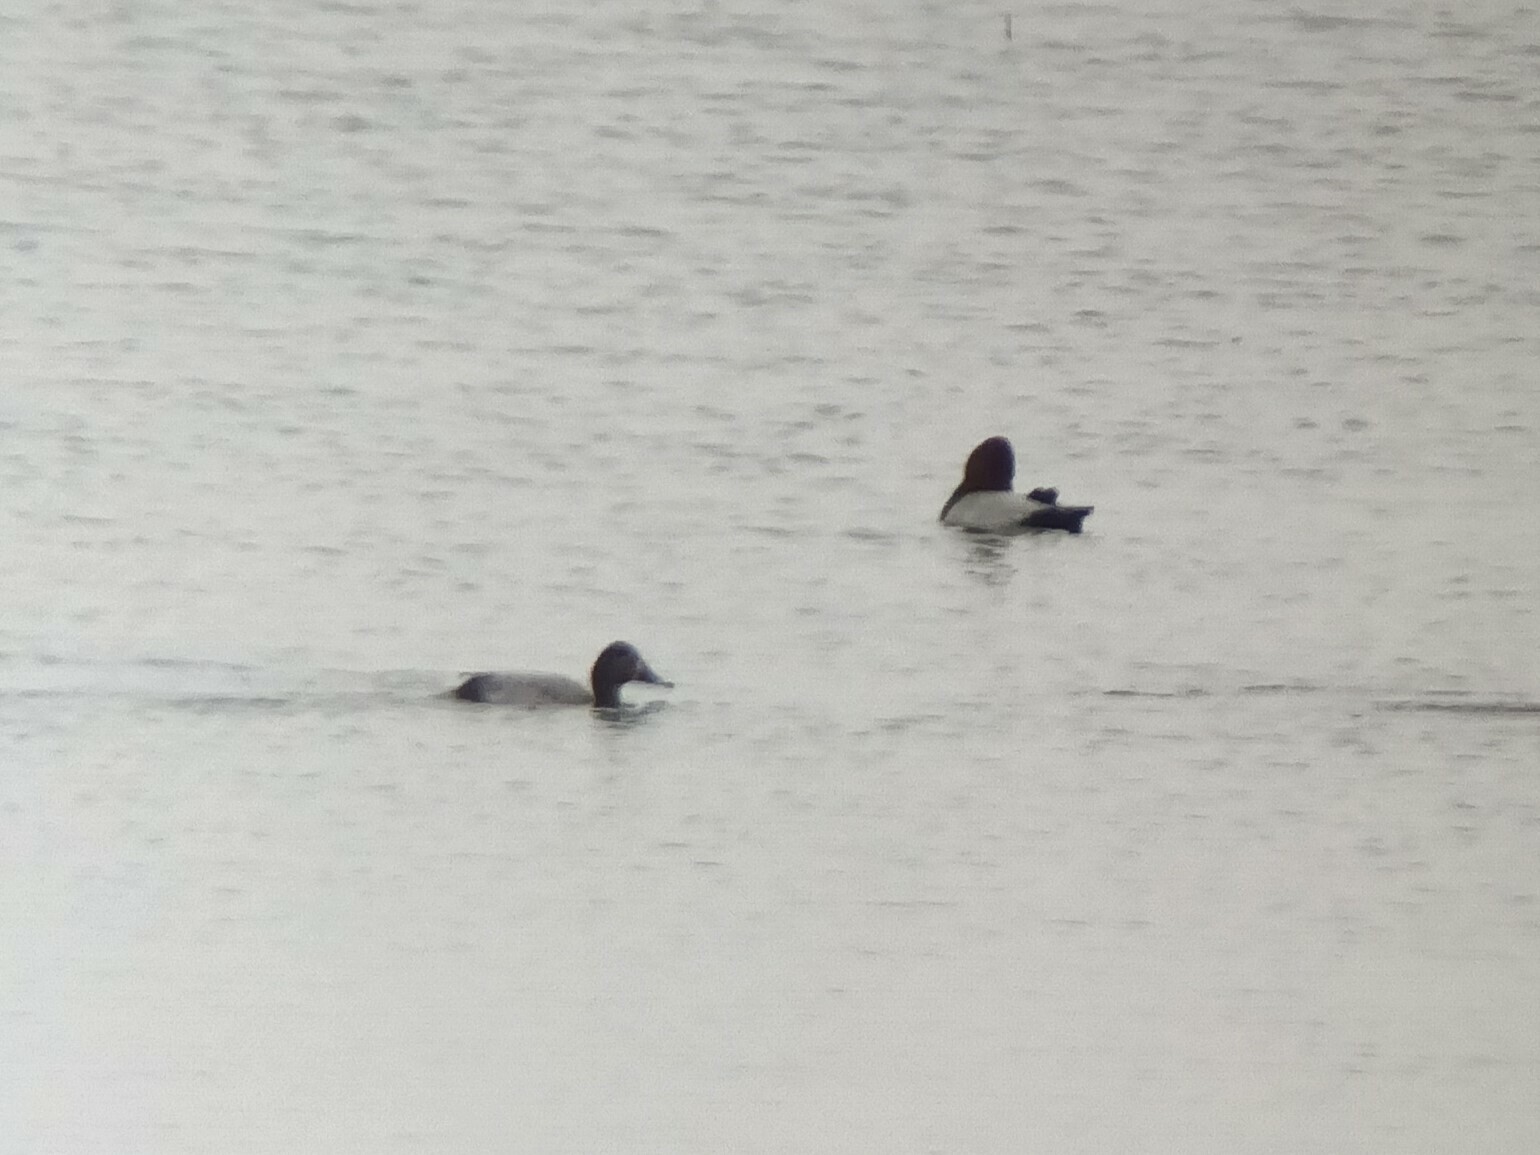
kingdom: Animalia
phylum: Chordata
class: Aves
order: Anseriformes
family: Anatidae
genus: Aythya
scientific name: Aythya ferina
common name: Common pochard
